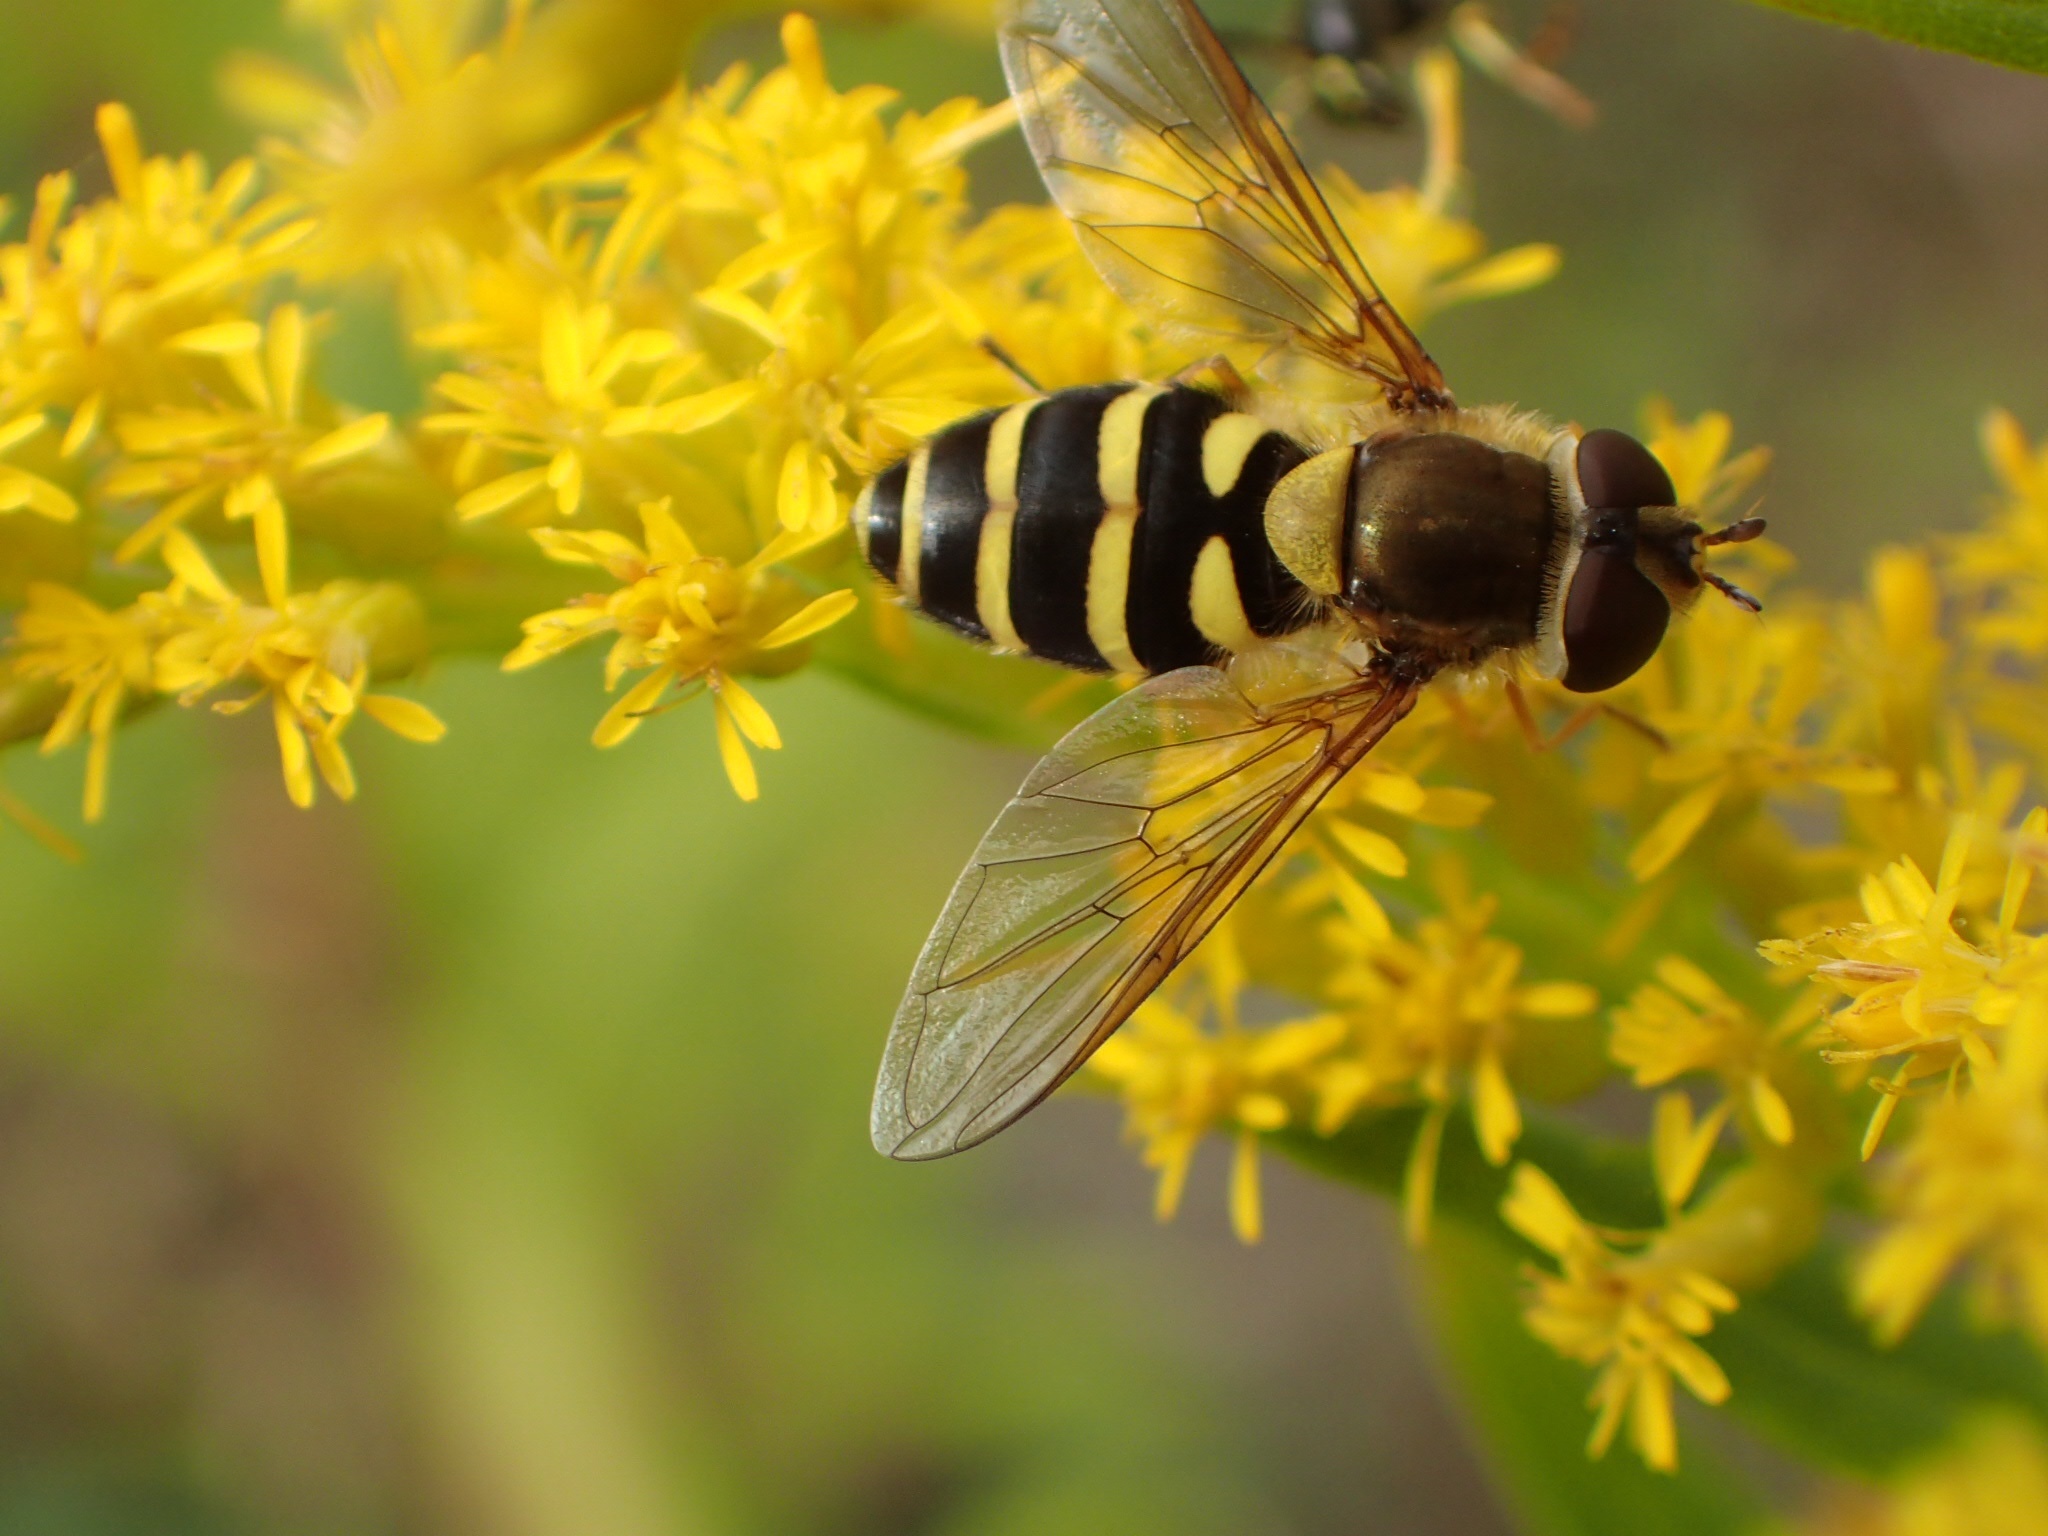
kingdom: Animalia
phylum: Arthropoda
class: Insecta
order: Diptera
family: Syrphidae
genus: Syrphus
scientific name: Syrphus
